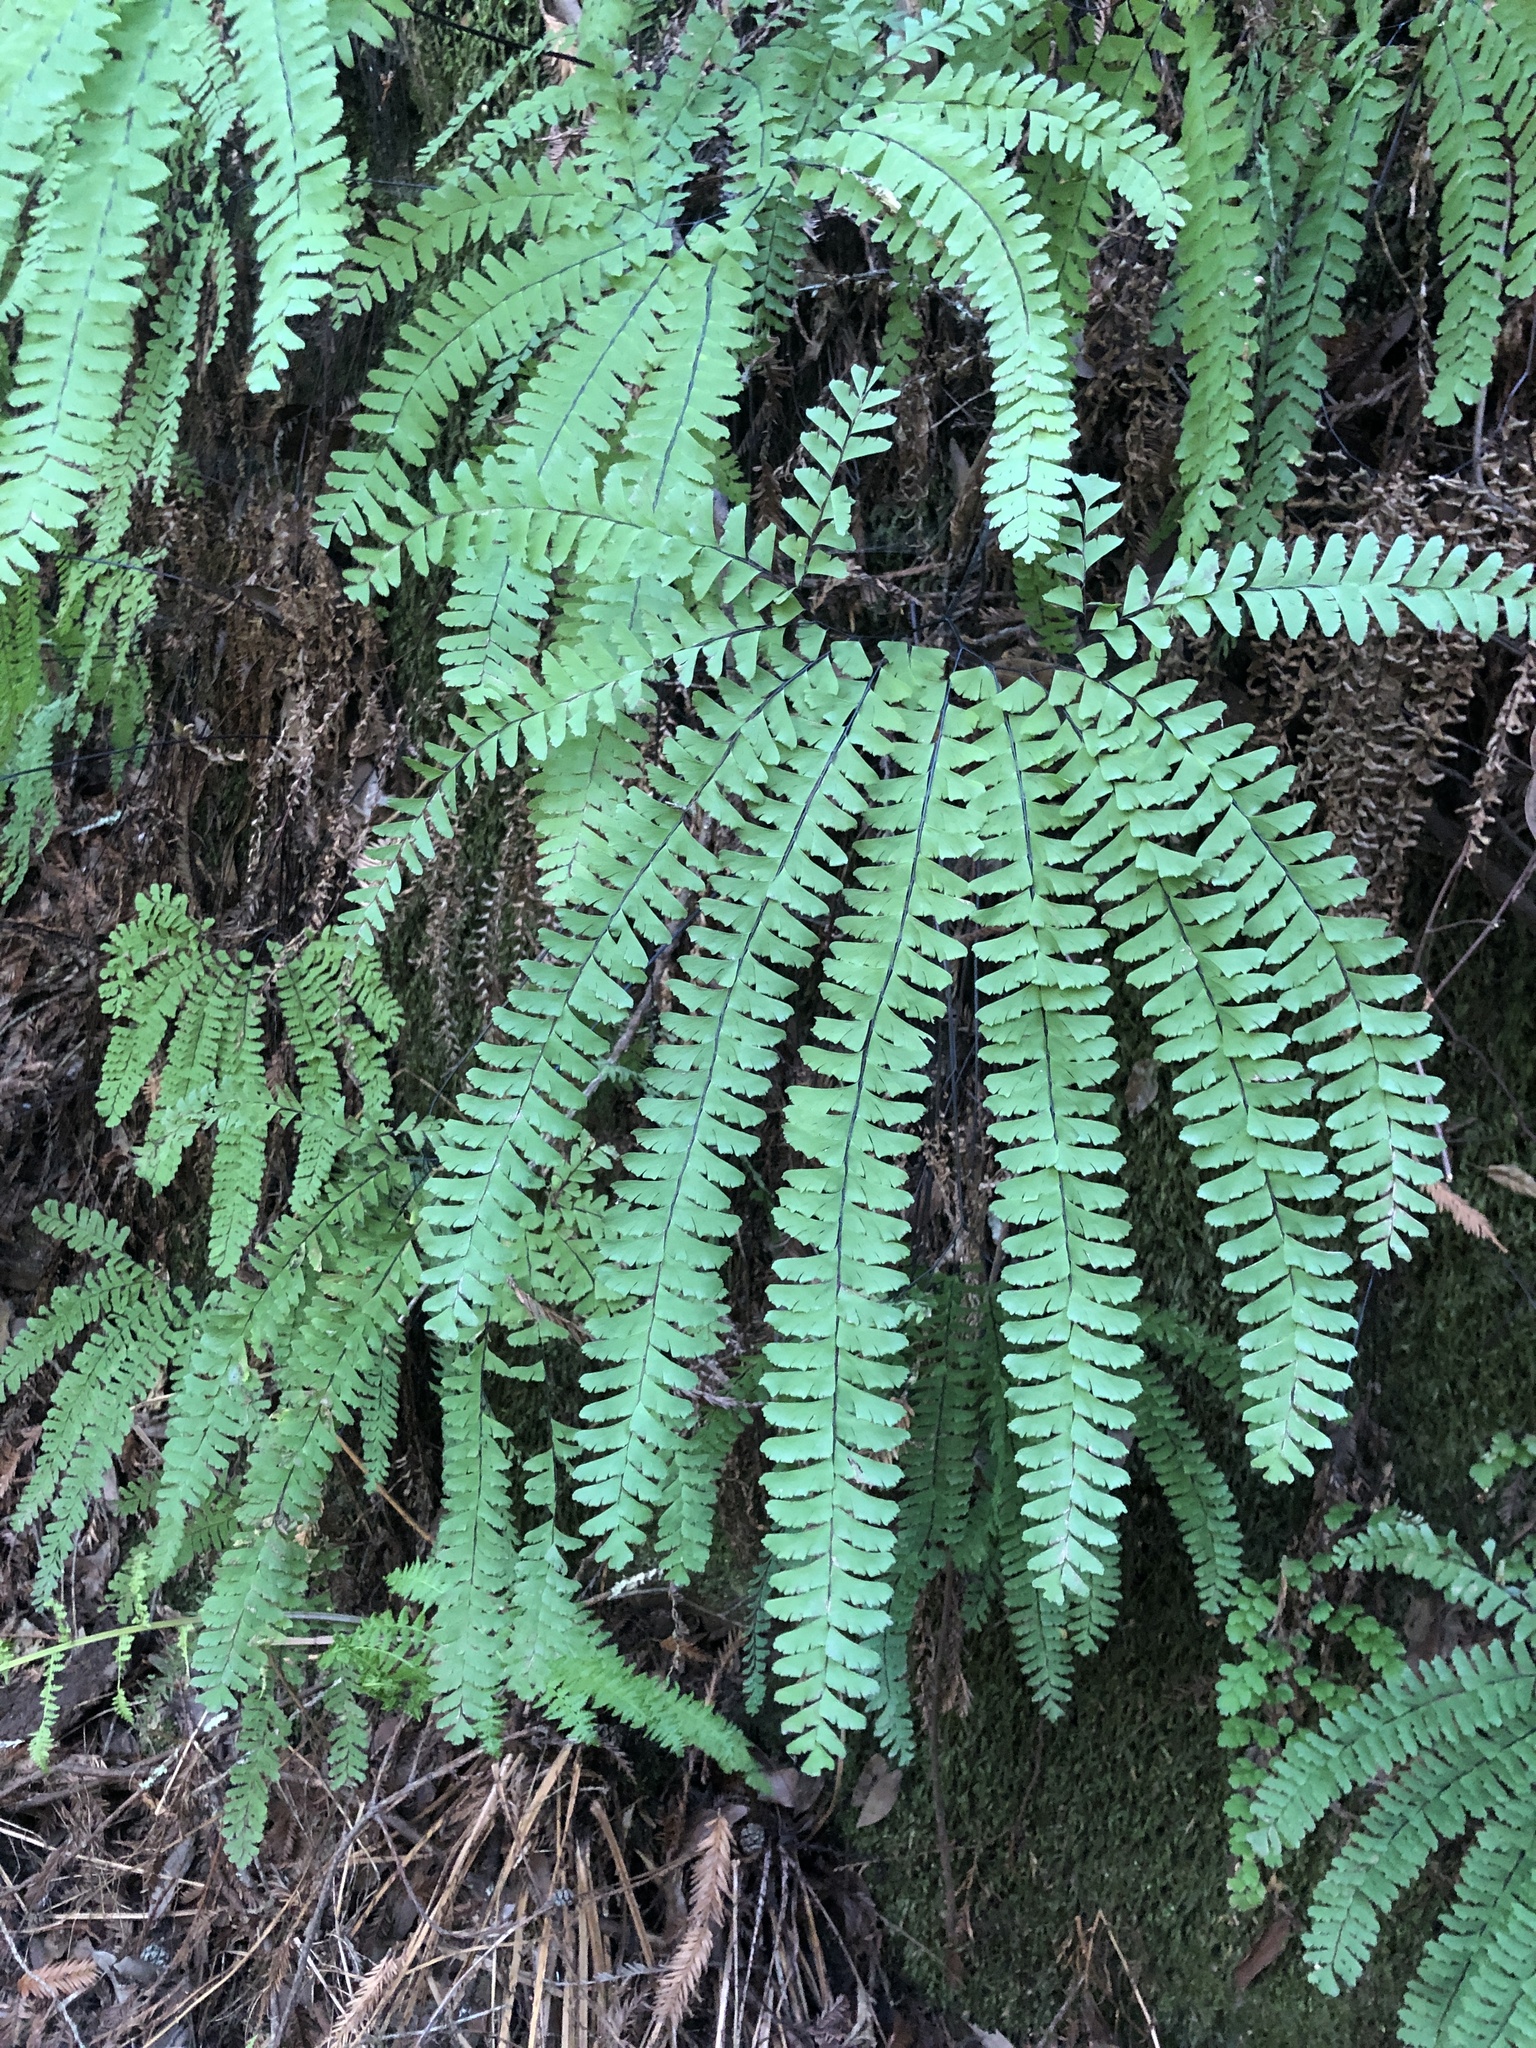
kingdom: Plantae
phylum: Tracheophyta
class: Polypodiopsida
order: Polypodiales
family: Pteridaceae
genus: Adiantum
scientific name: Adiantum aleuticum
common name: Aleutian maidenhair fern
